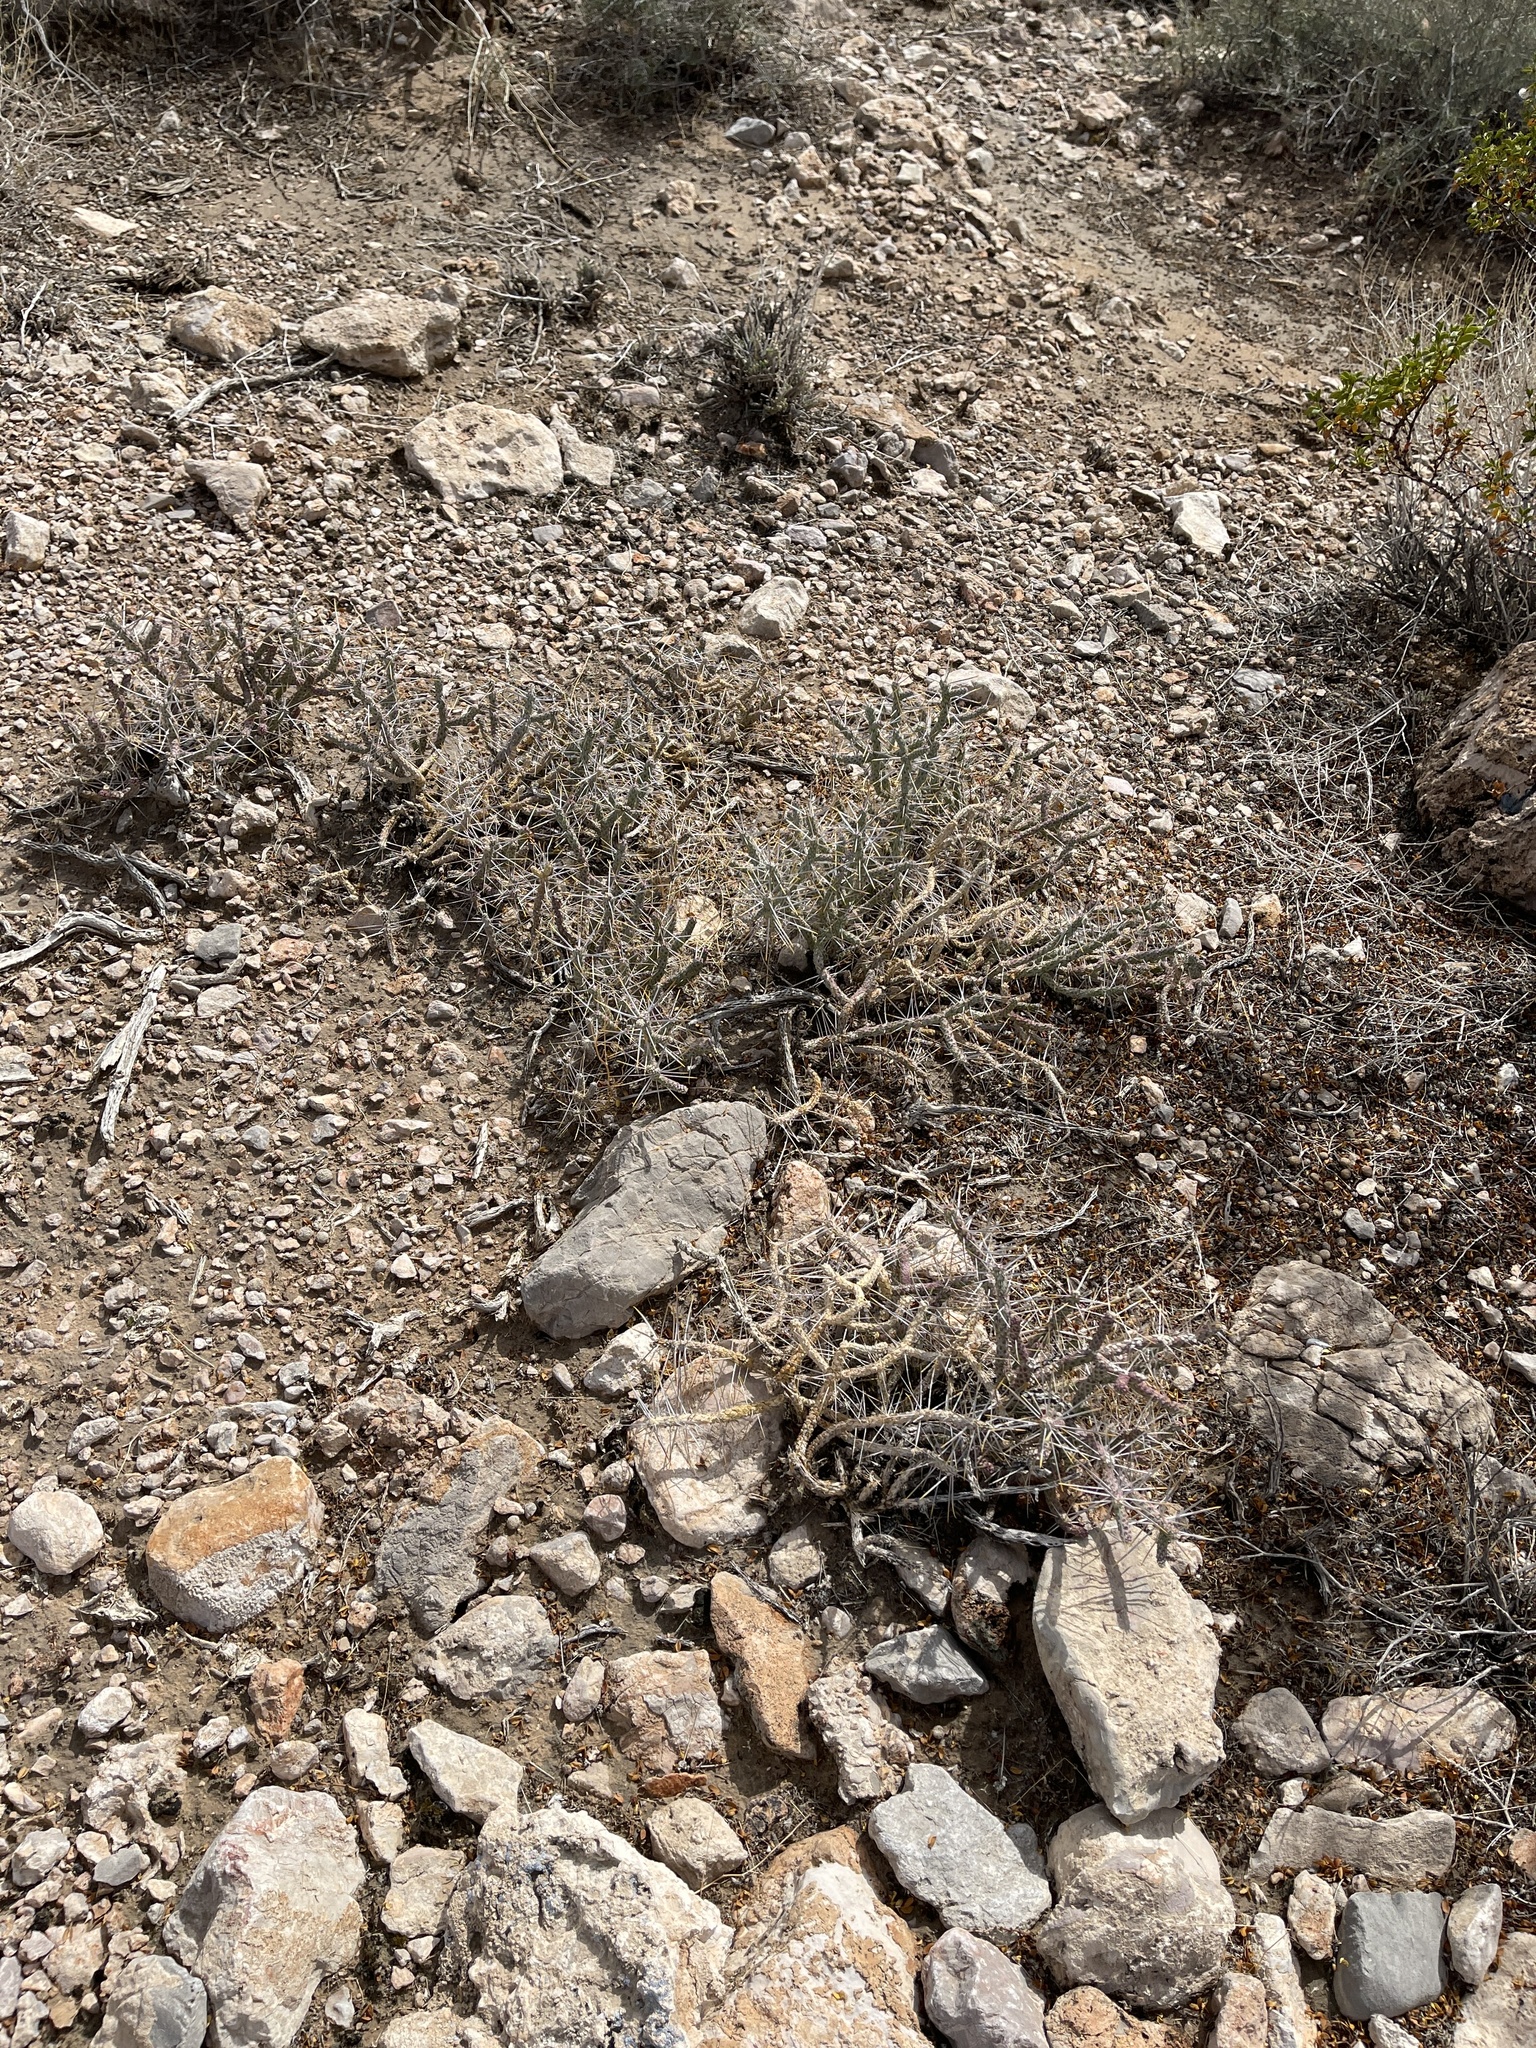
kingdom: Plantae
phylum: Tracheophyta
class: Magnoliopsida
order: Caryophyllales
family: Cactaceae
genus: Cylindropuntia
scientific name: Cylindropuntia ramosissima
